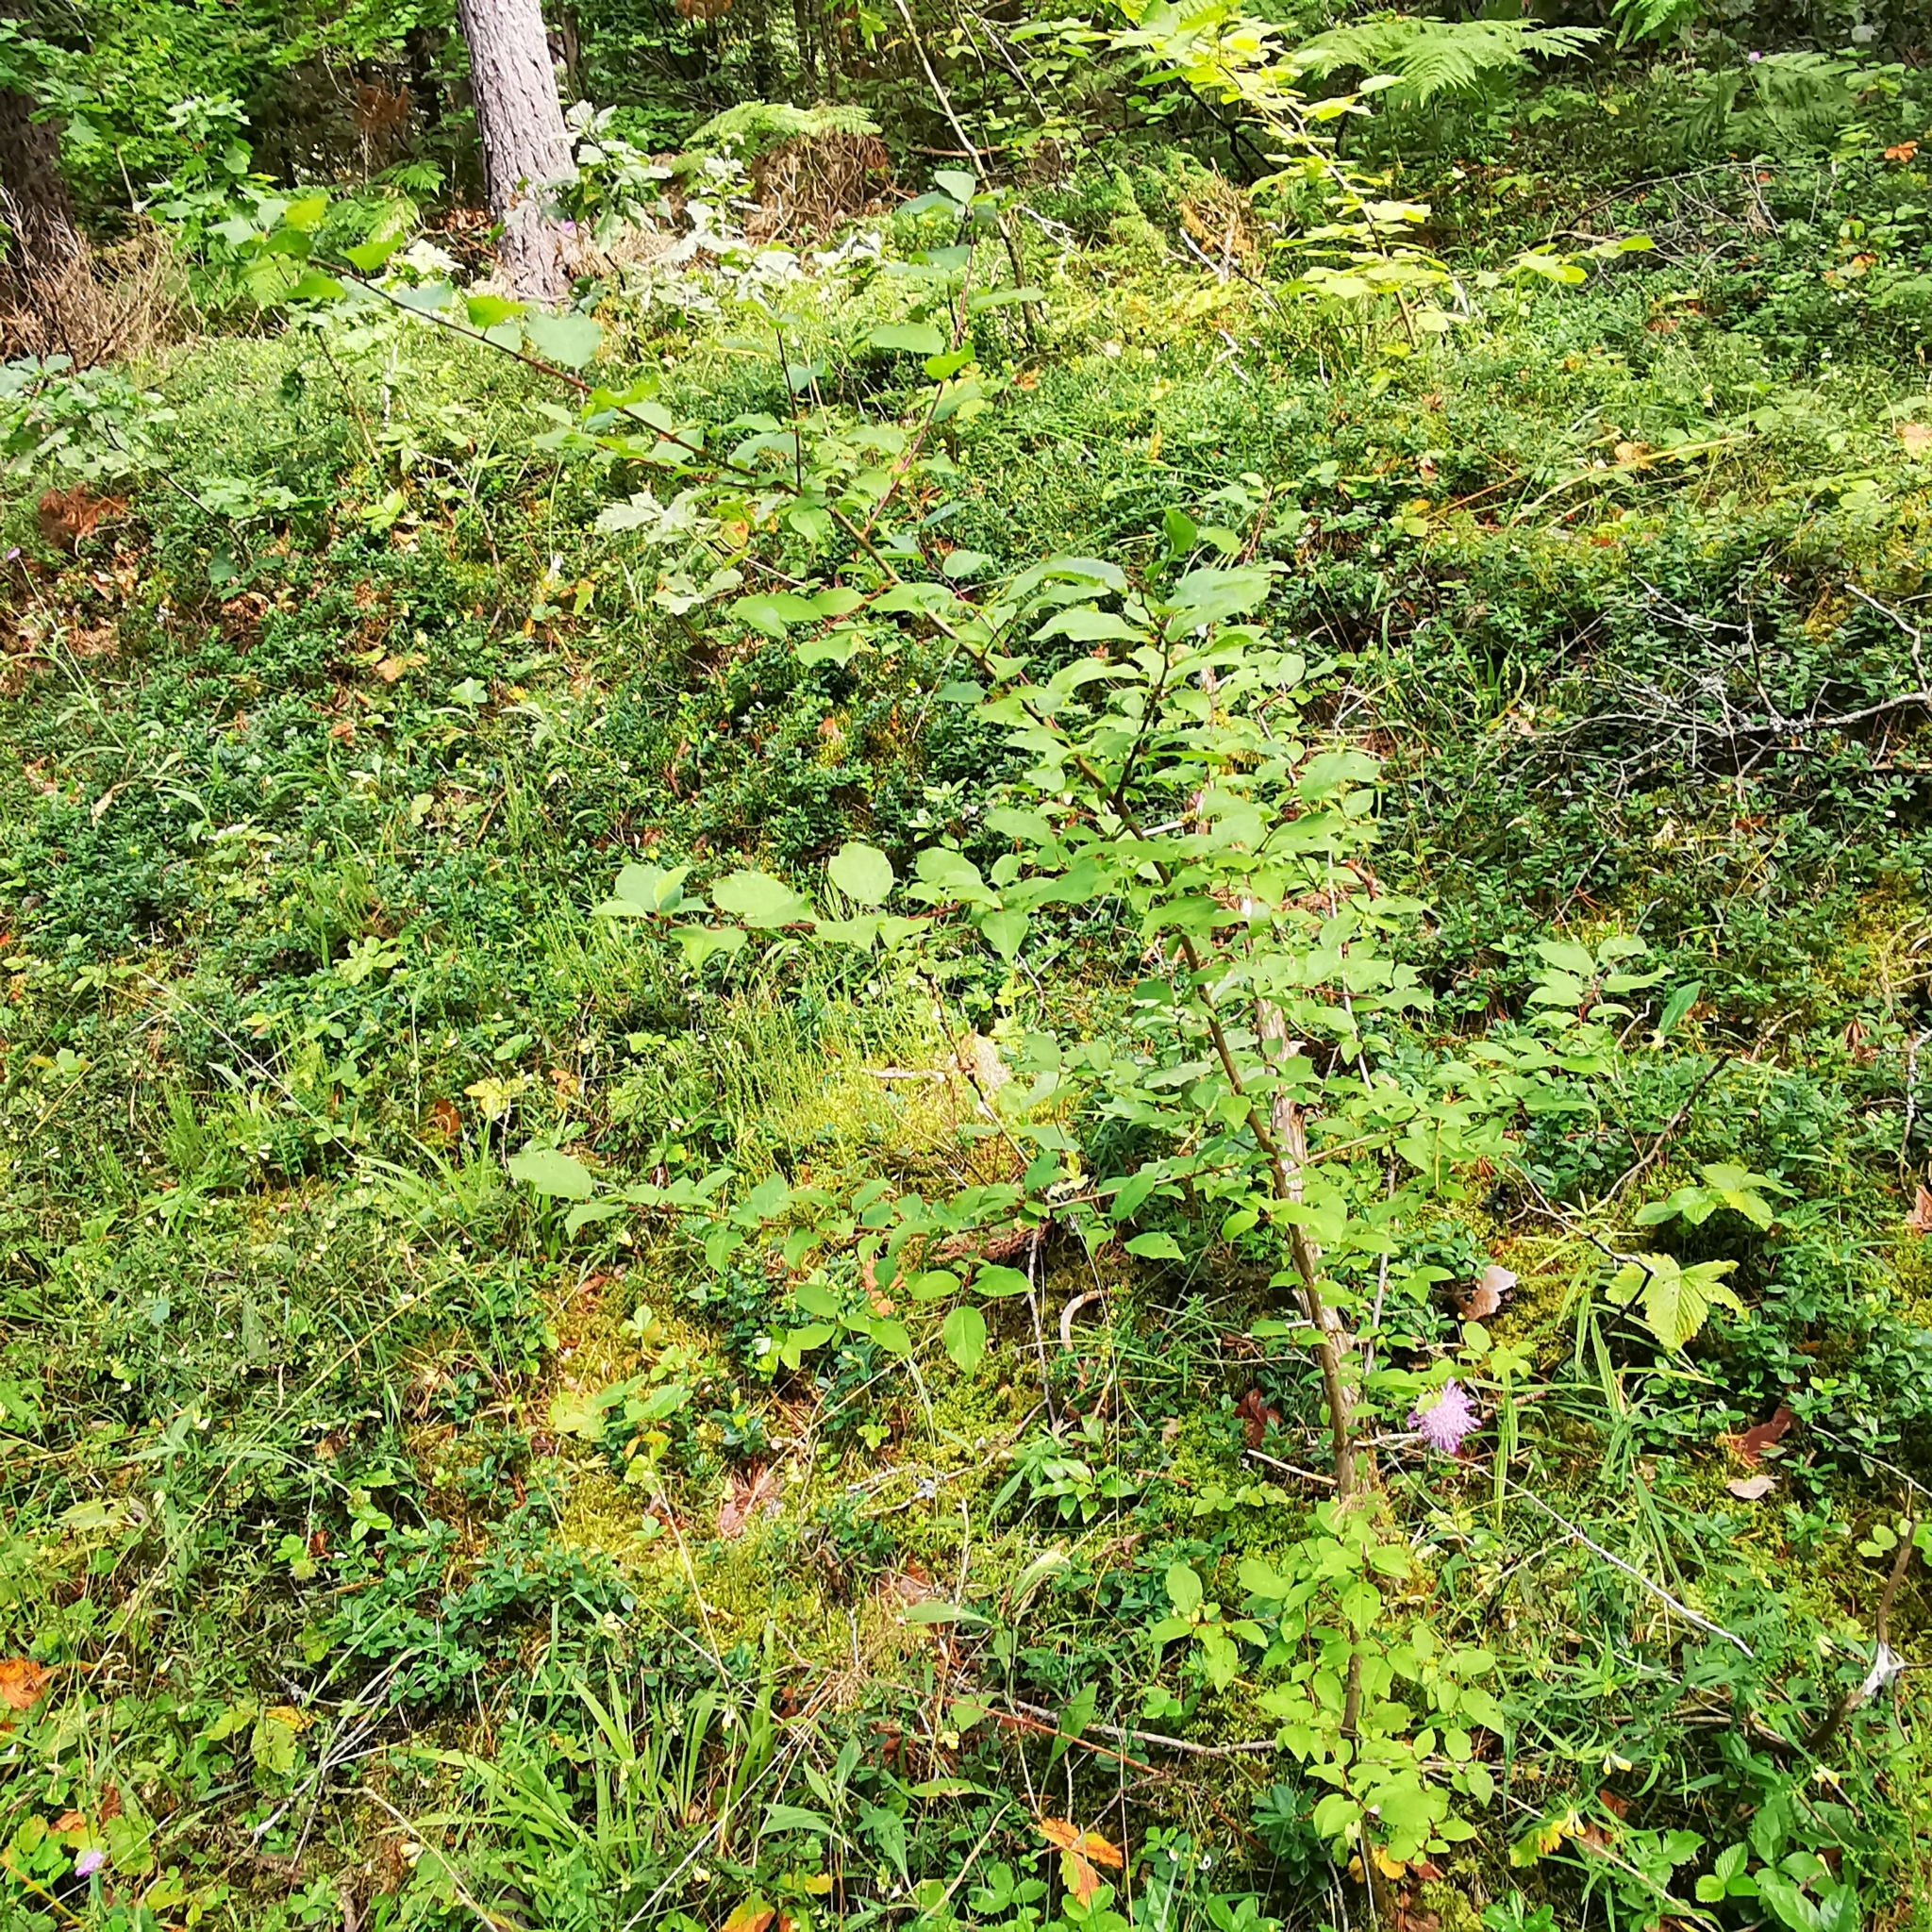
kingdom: Plantae
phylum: Tracheophyta
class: Magnoliopsida
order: Rosales
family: Rosaceae
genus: Prunus
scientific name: Prunus cerasifera
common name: Cherry plum
